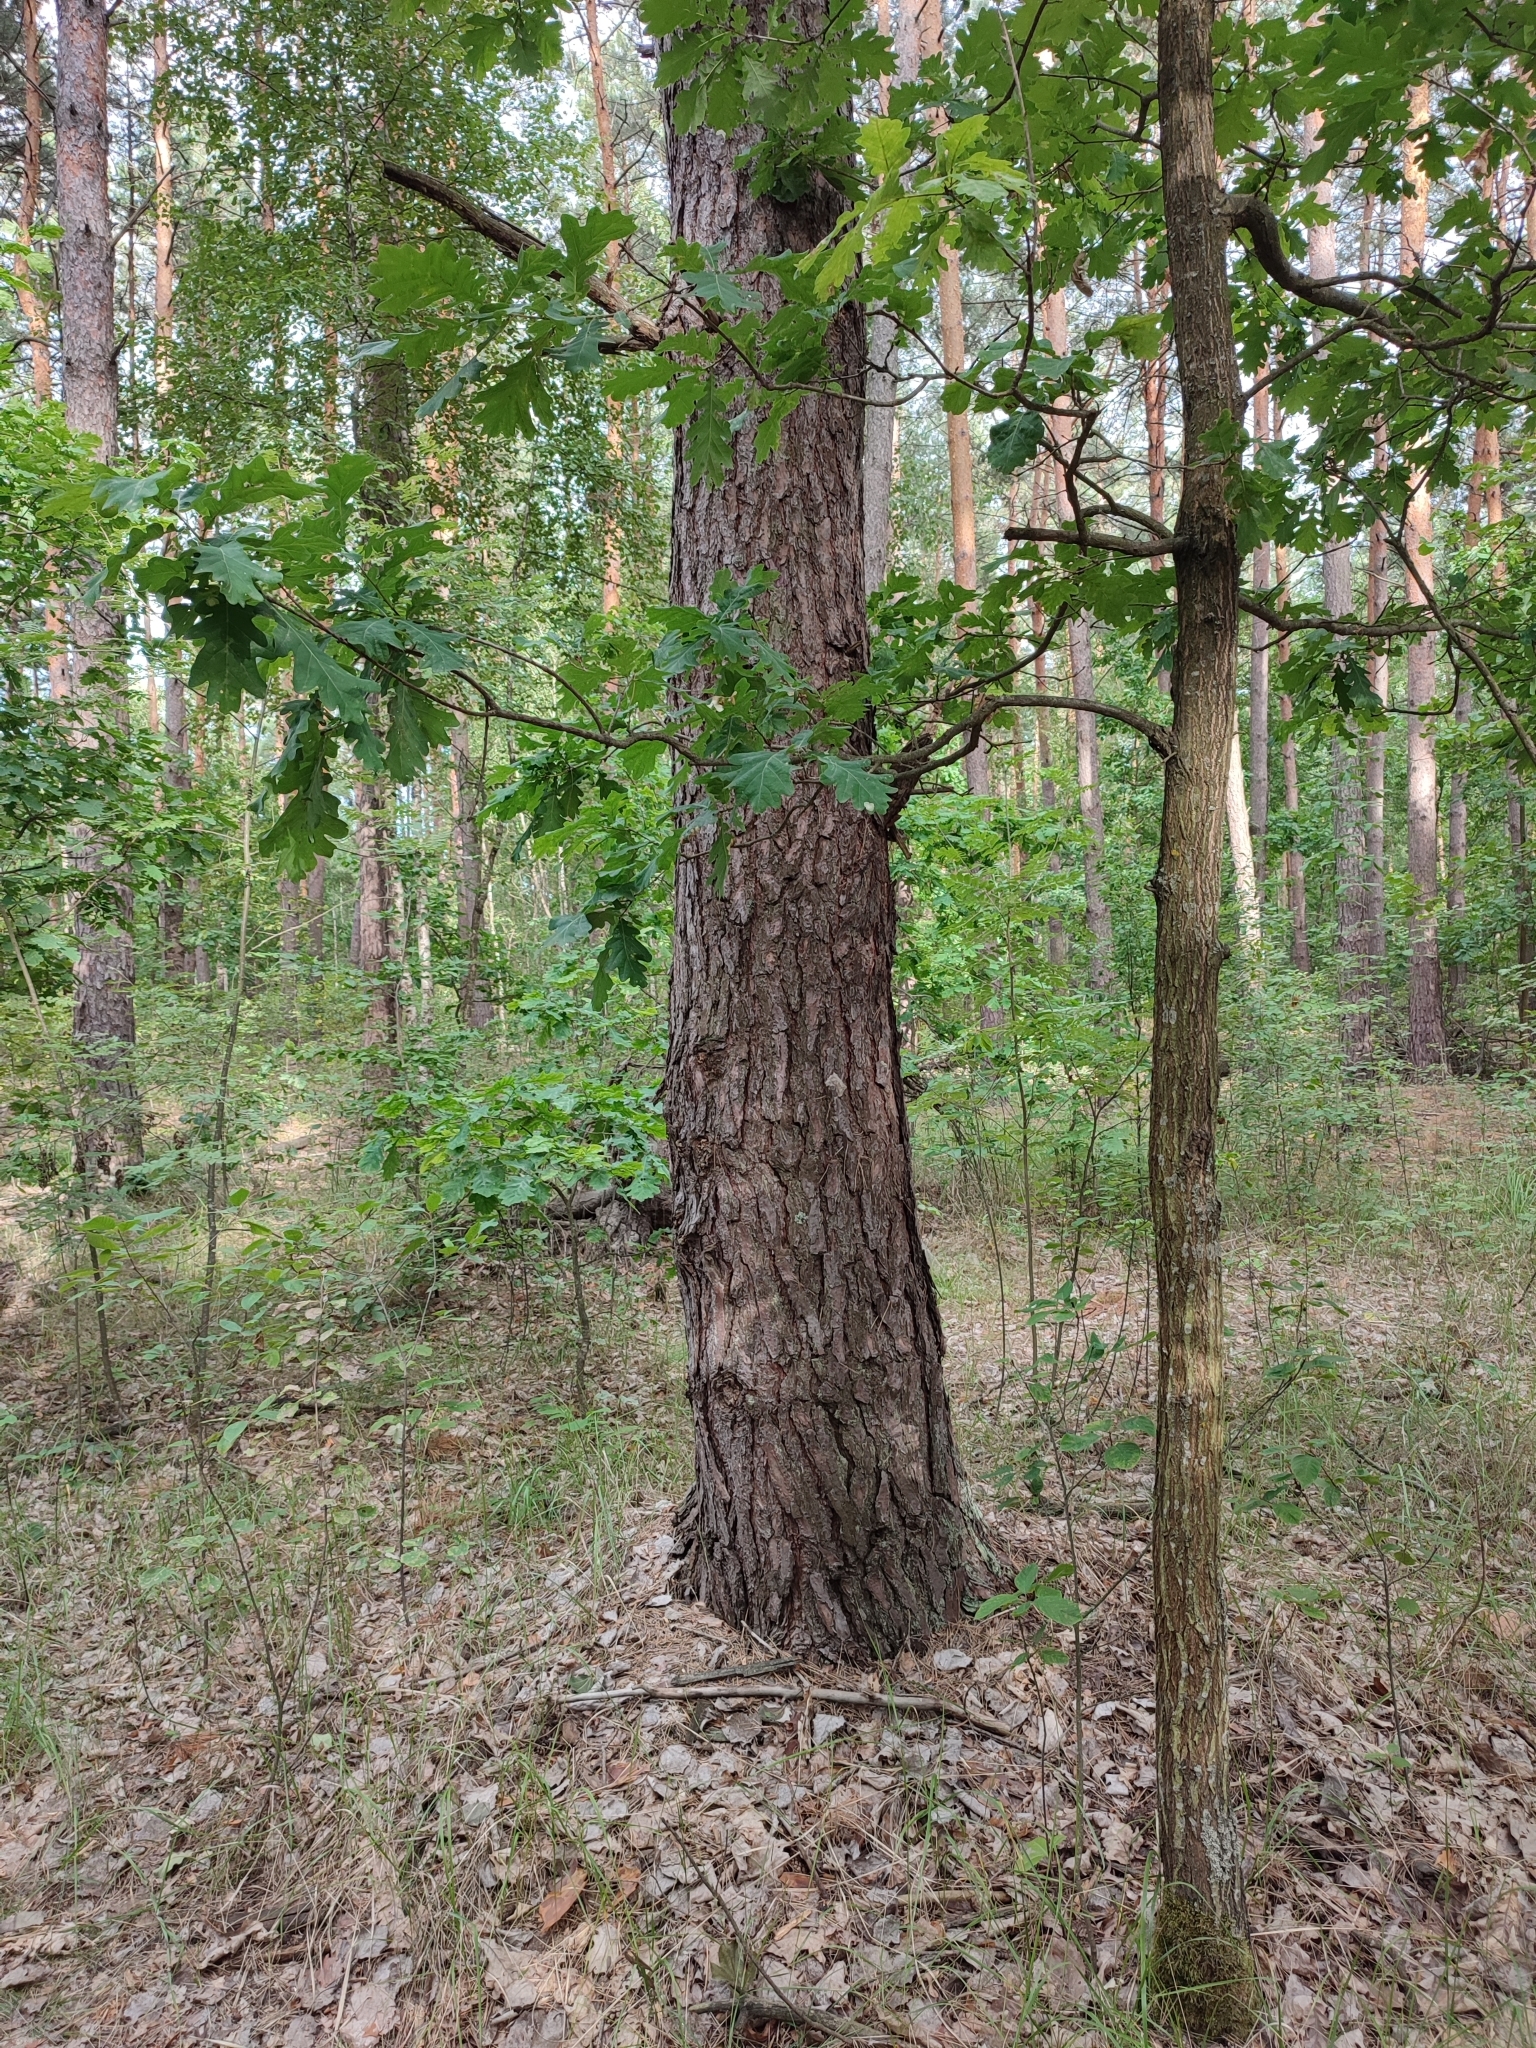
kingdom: Plantae
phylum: Tracheophyta
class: Magnoliopsida
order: Fagales
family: Fagaceae
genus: Quercus
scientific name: Quercus robur
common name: Pedunculate oak
